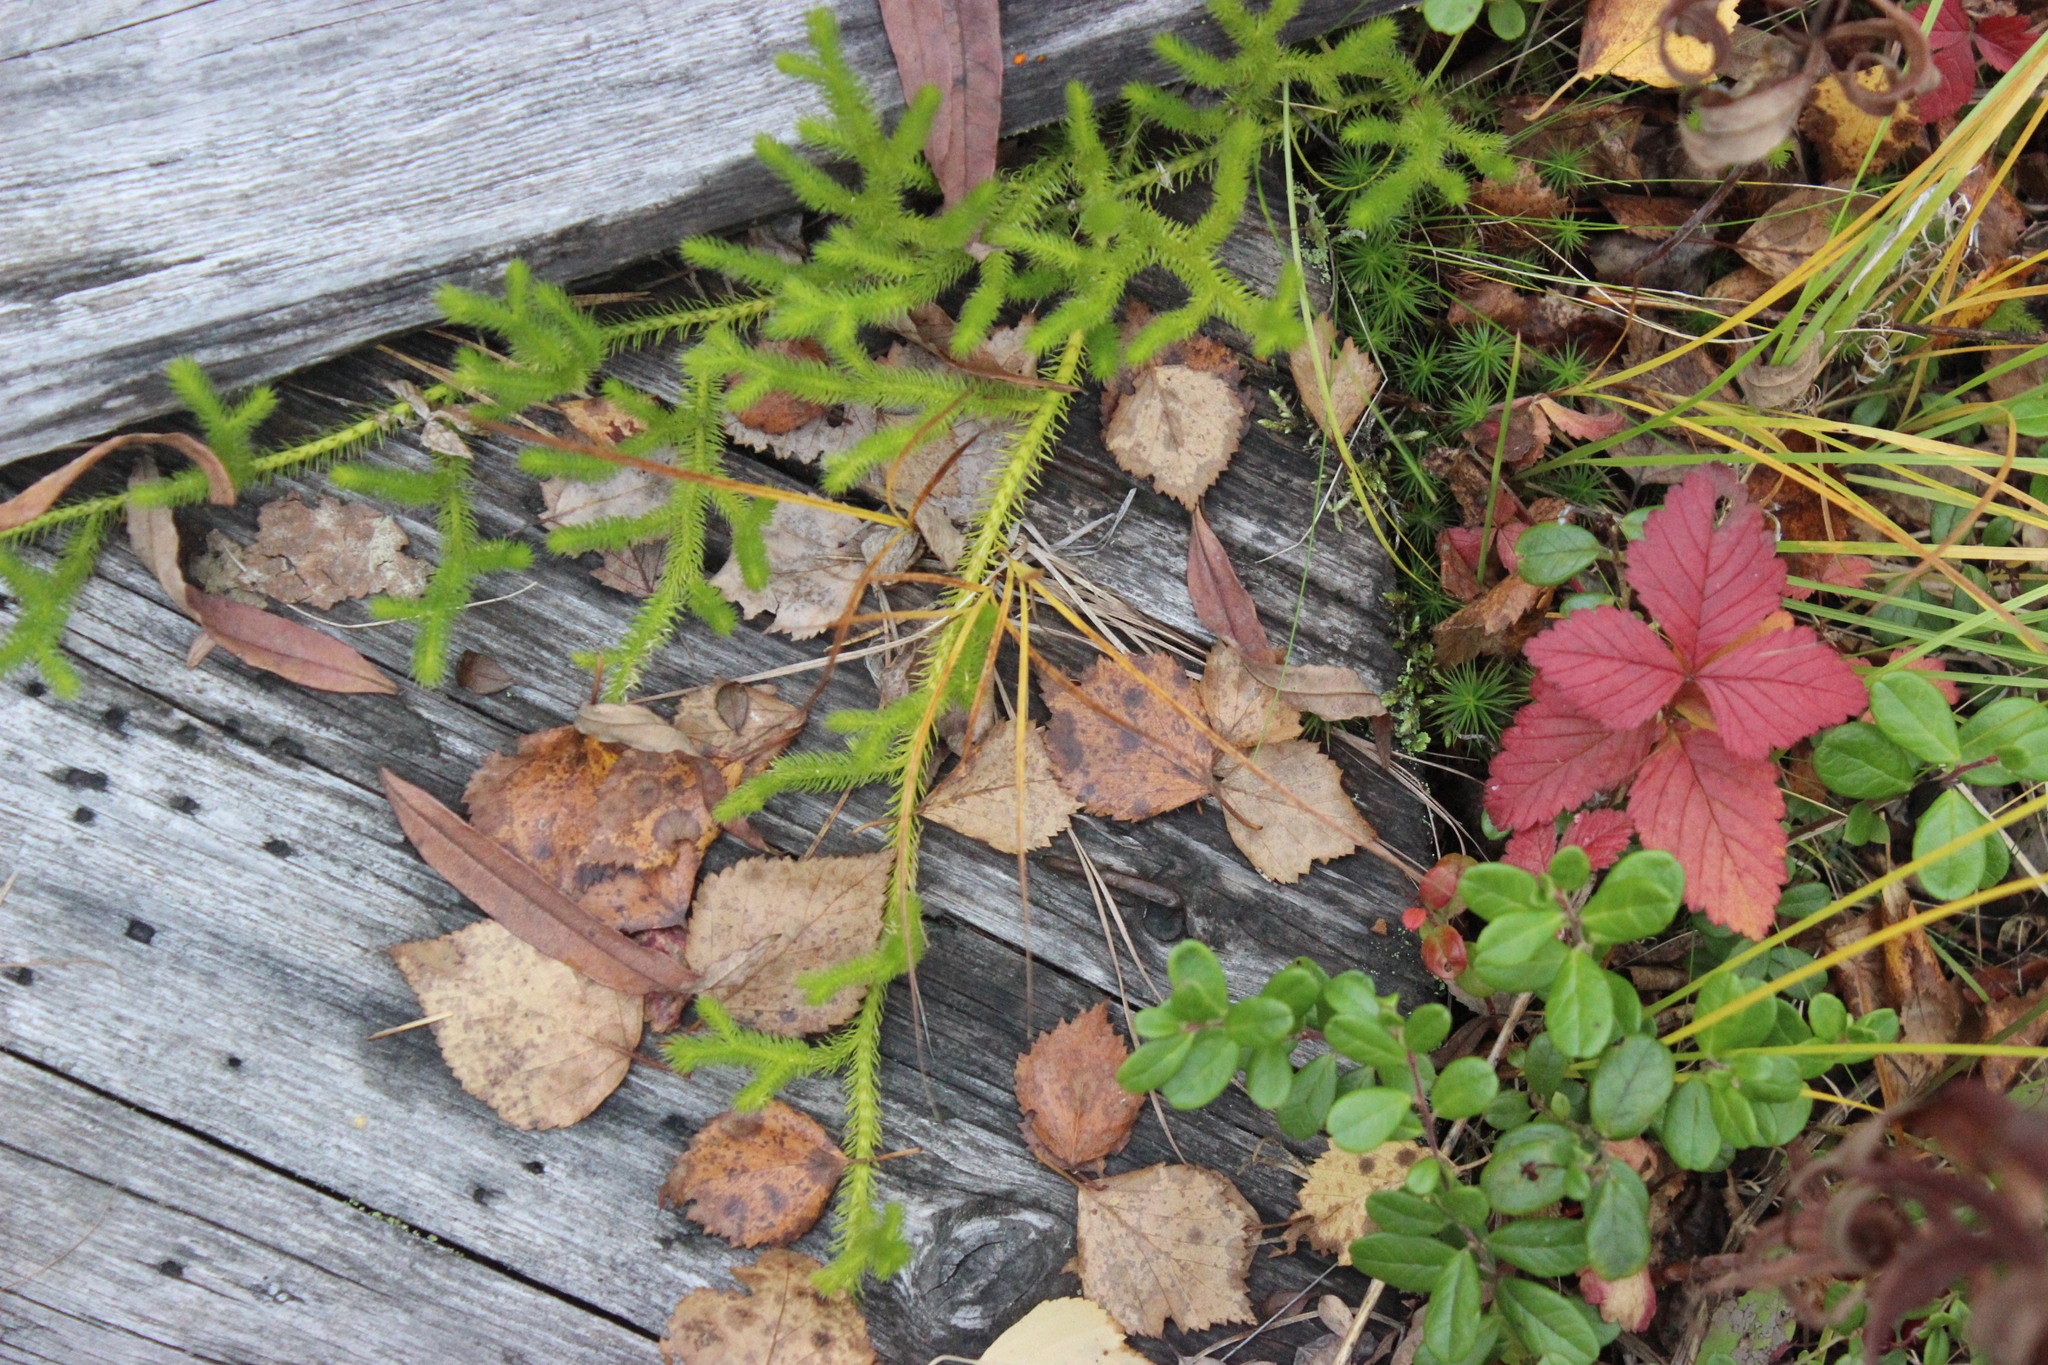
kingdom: Plantae
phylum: Tracheophyta
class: Lycopodiopsida
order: Lycopodiales
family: Lycopodiaceae
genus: Lycopodium
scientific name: Lycopodium clavatum
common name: Stag's-horn clubmoss
